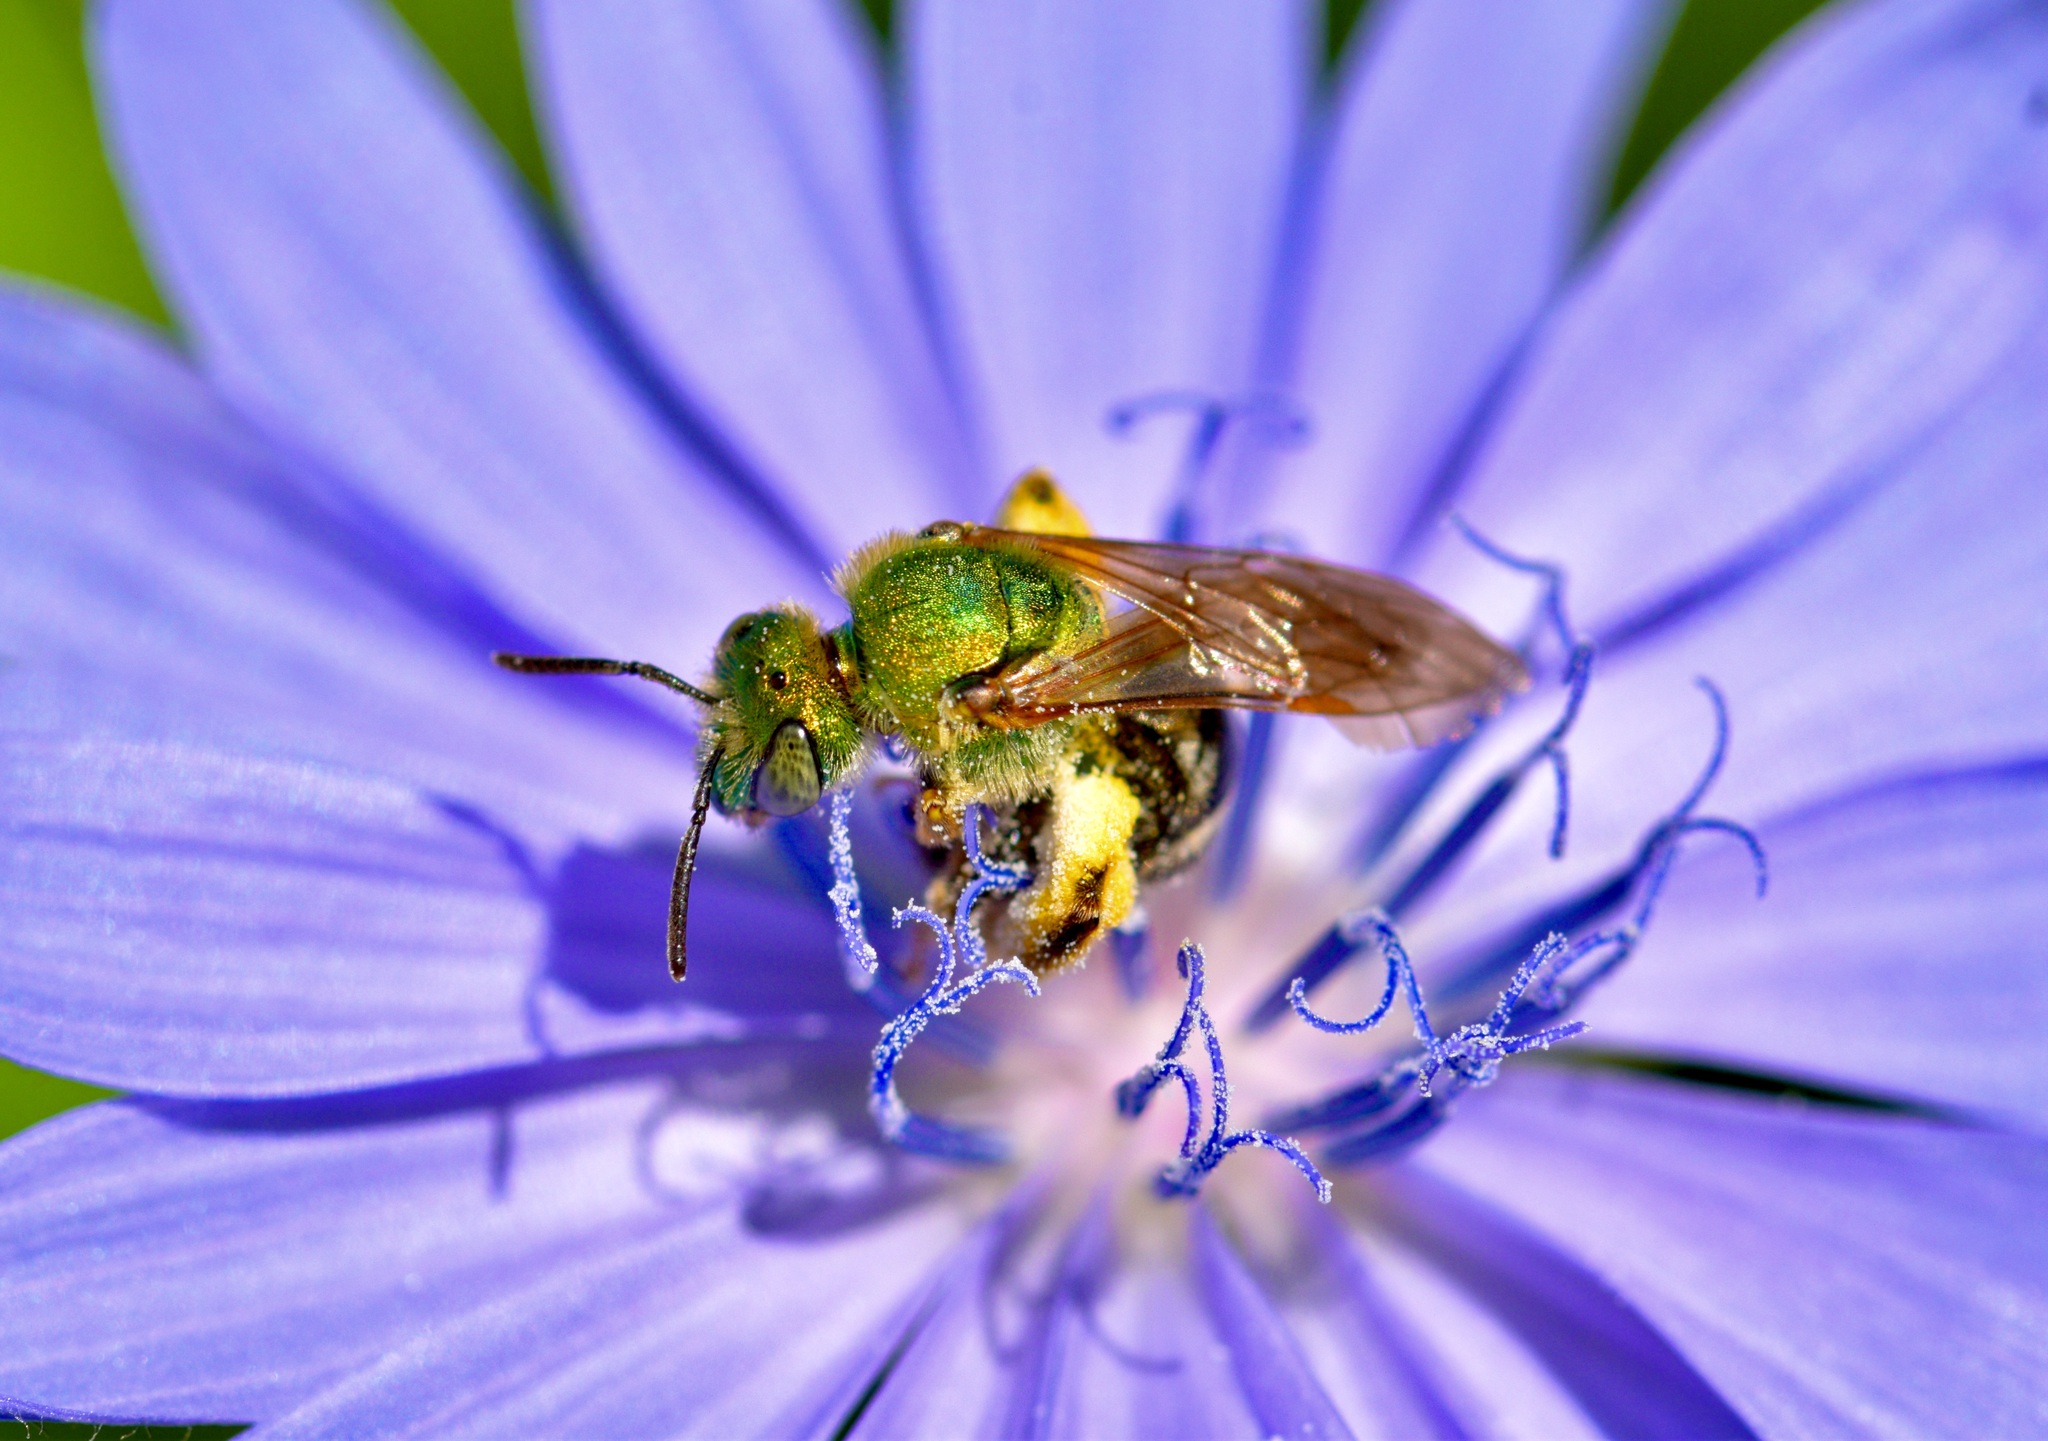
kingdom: Animalia
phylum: Arthropoda
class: Insecta
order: Hymenoptera
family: Halictidae
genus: Agapostemon
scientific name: Agapostemon virescens
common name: Bicolored striped sweat bee
